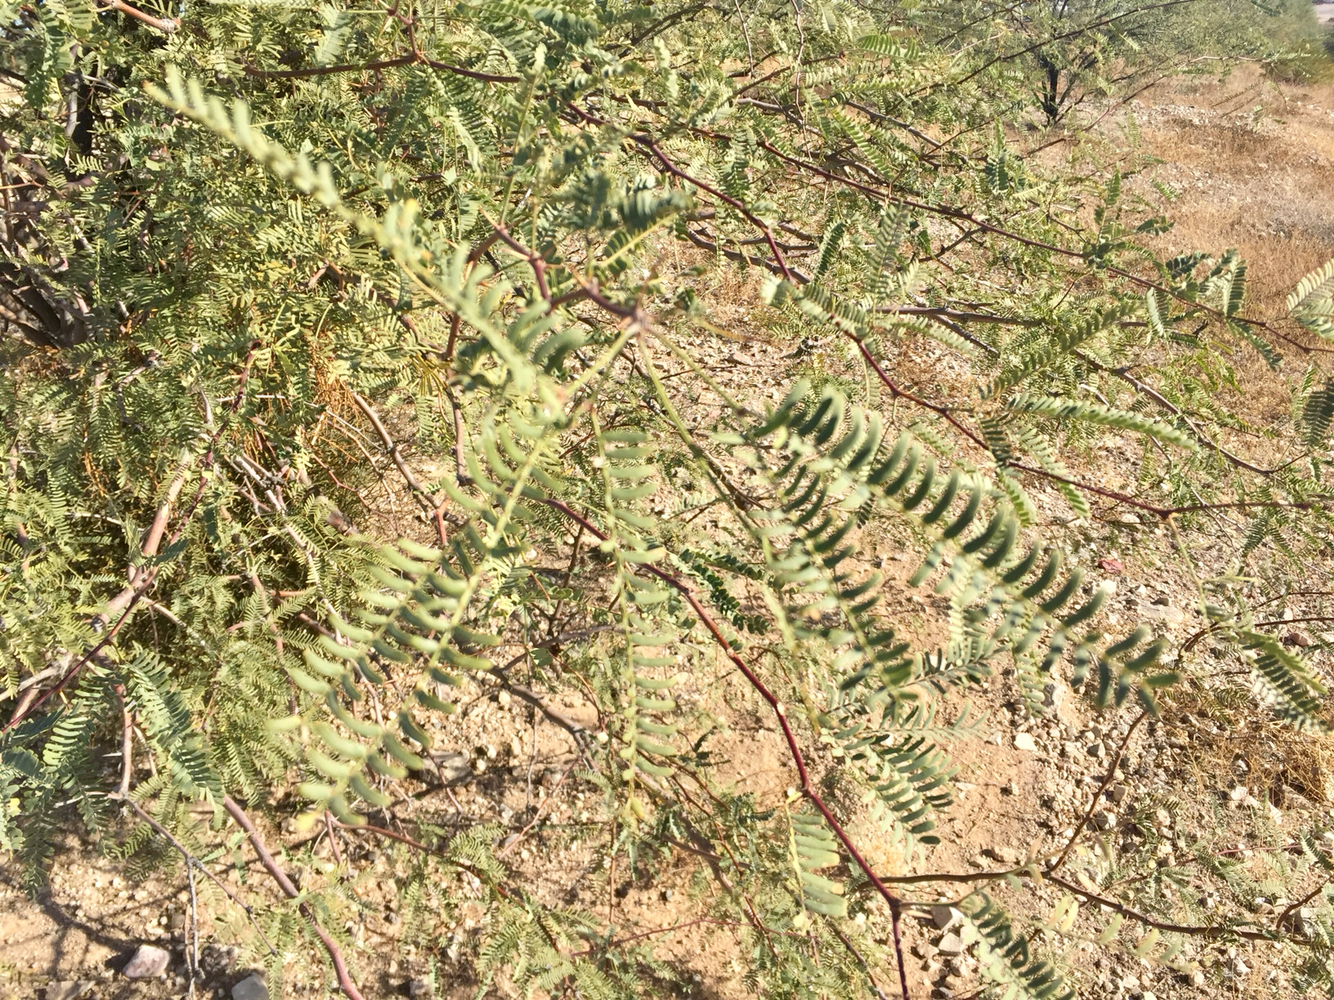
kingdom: Plantae
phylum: Tracheophyta
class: Magnoliopsida
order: Fabales
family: Fabaceae
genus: Prosopis
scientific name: Prosopis glandulosa
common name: Honey mesquite
